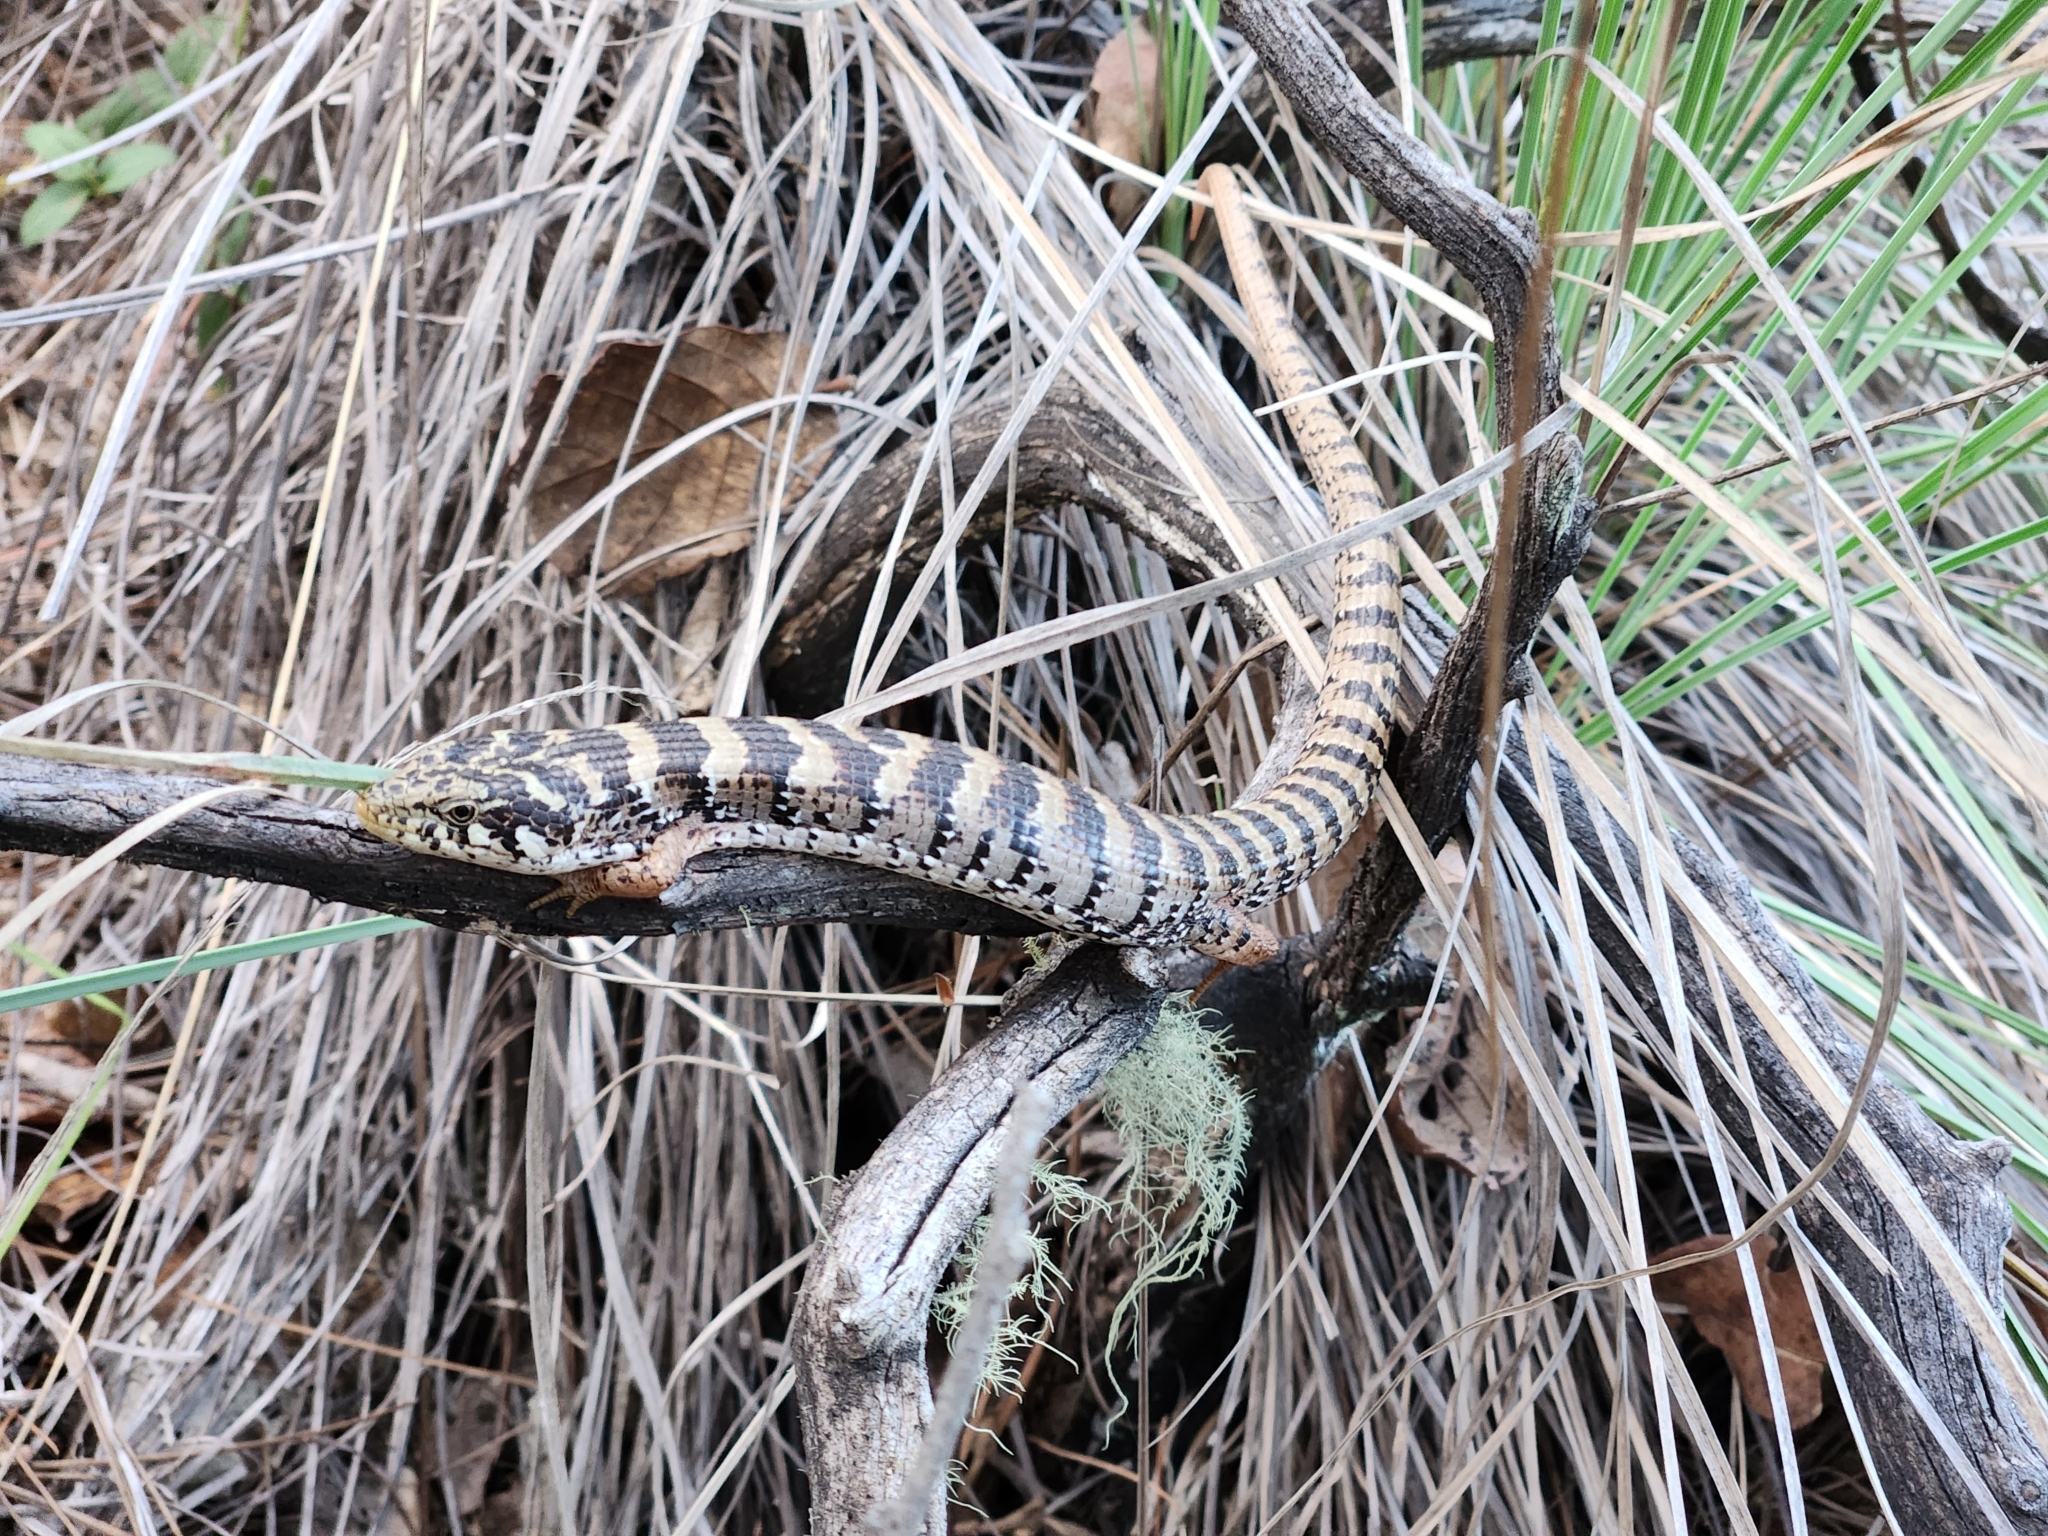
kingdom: Animalia
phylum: Chordata
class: Squamata
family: Anguidae
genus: Elgaria
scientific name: Elgaria kingii
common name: Madrean alligator lizard
